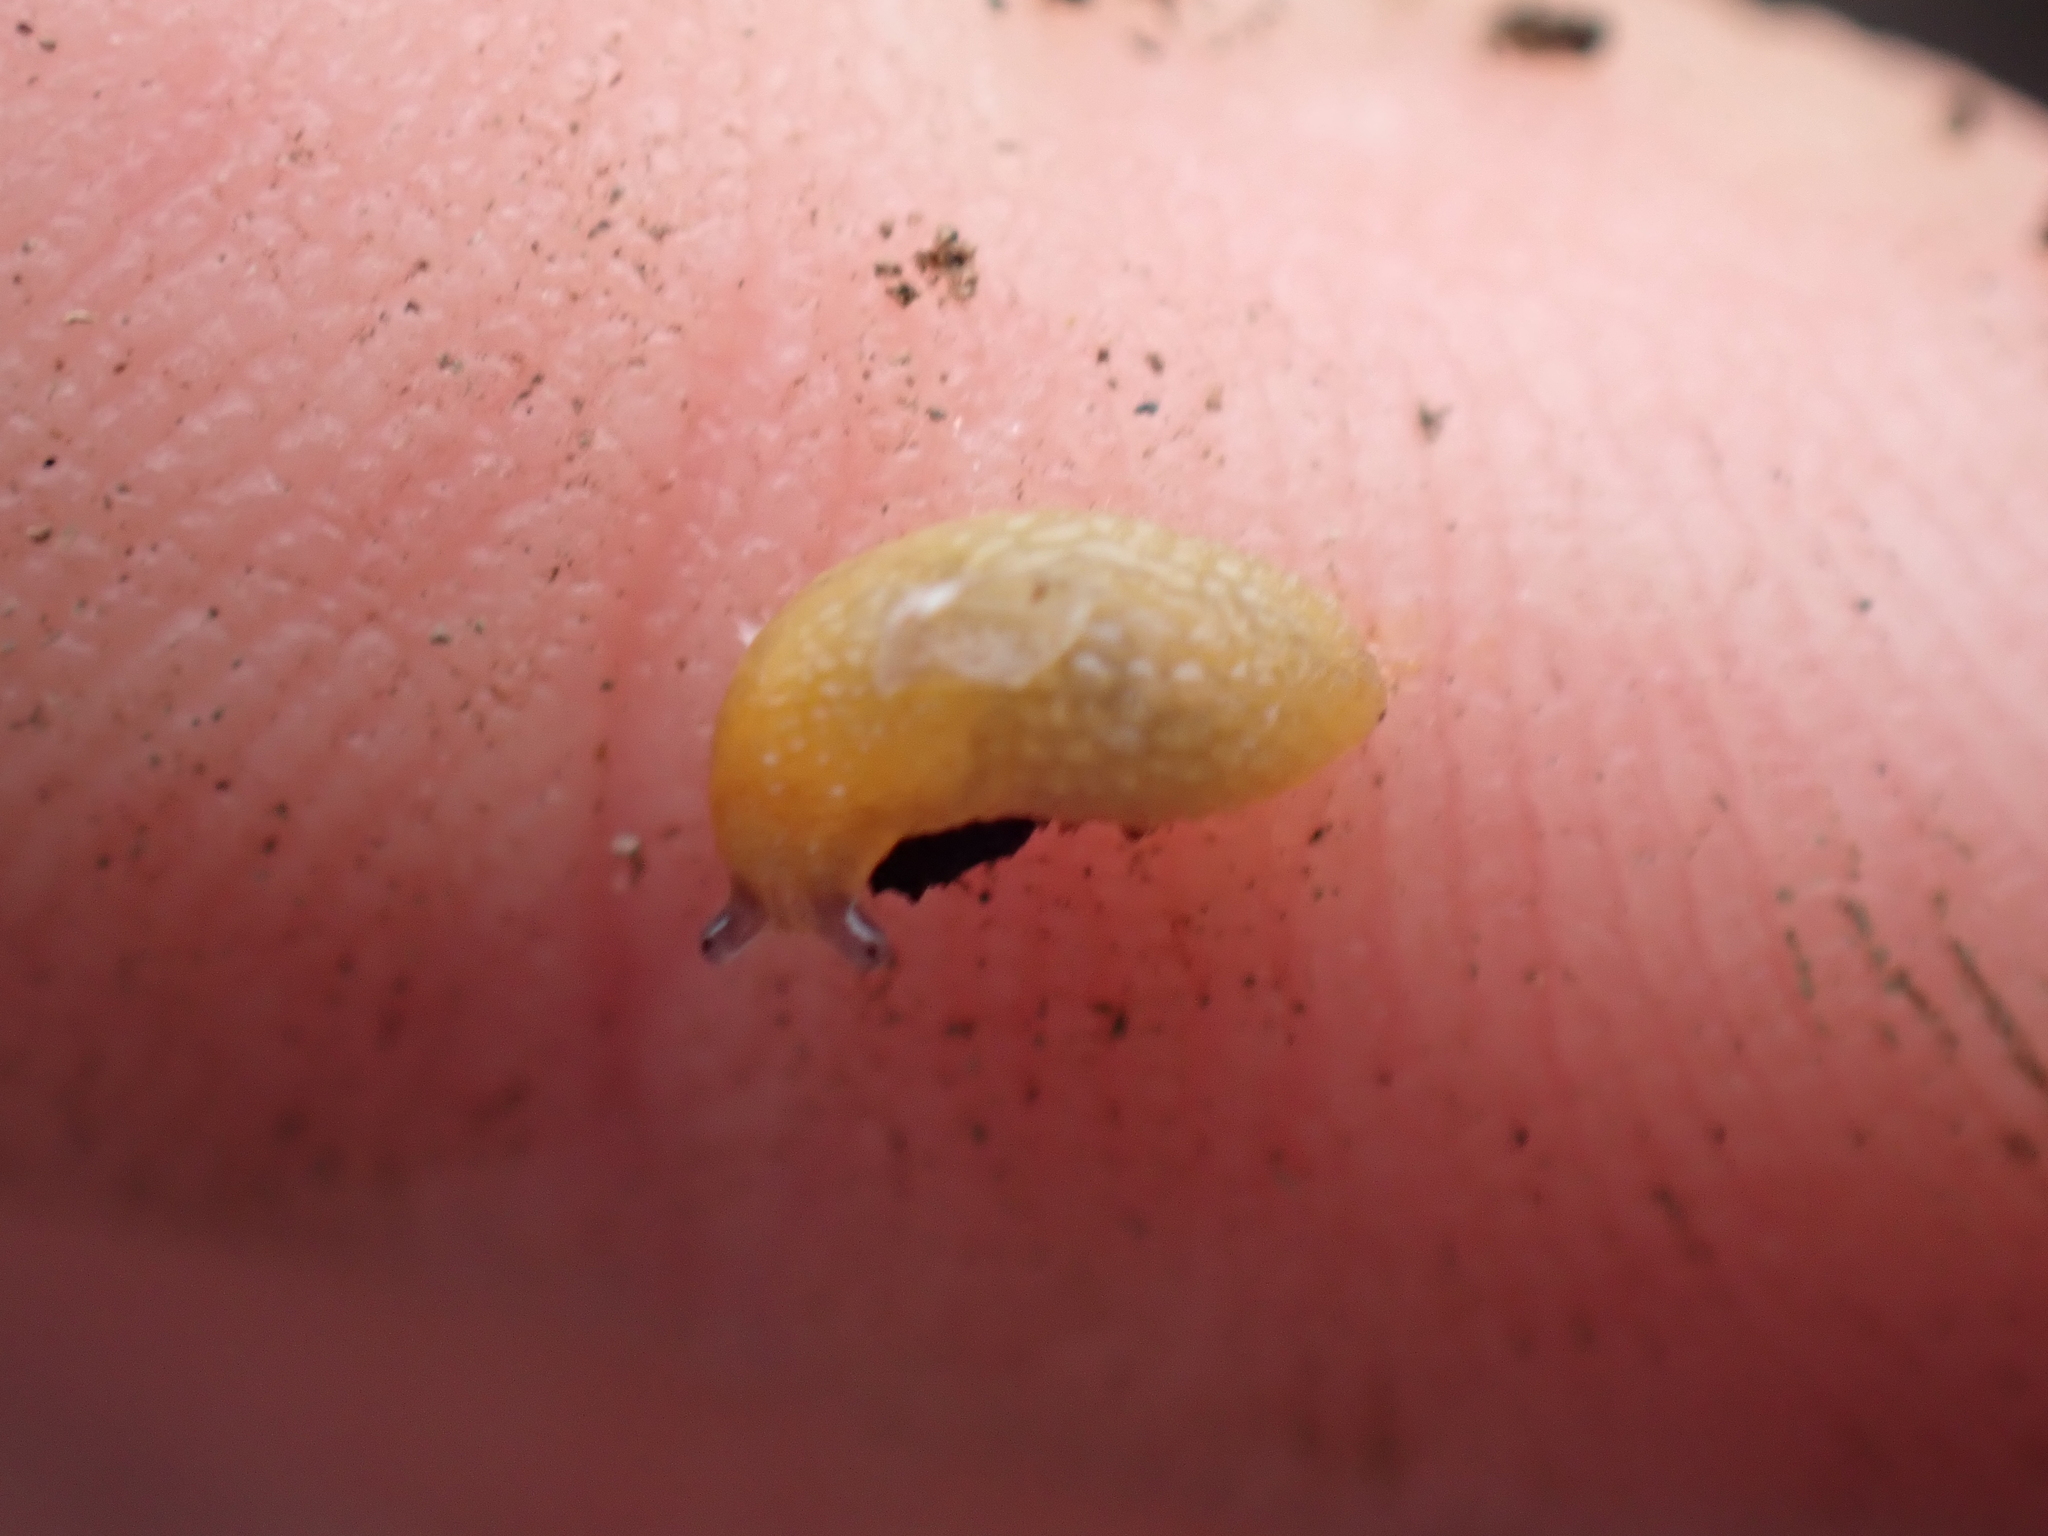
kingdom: Animalia
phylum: Mollusca
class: Gastropoda
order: Stylommatophora
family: Arionidae
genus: Arion
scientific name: Arion intermedius
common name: Hedgehog slug
